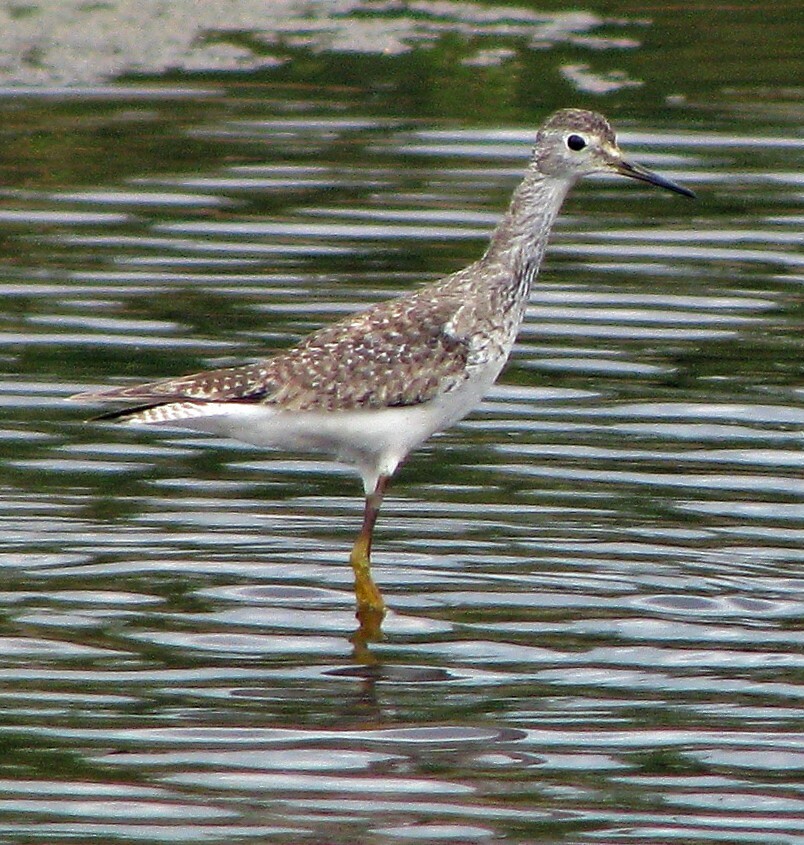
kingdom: Animalia
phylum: Chordata
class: Aves
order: Charadriiformes
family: Scolopacidae
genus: Tringa
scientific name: Tringa flavipes
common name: Lesser yellowlegs
